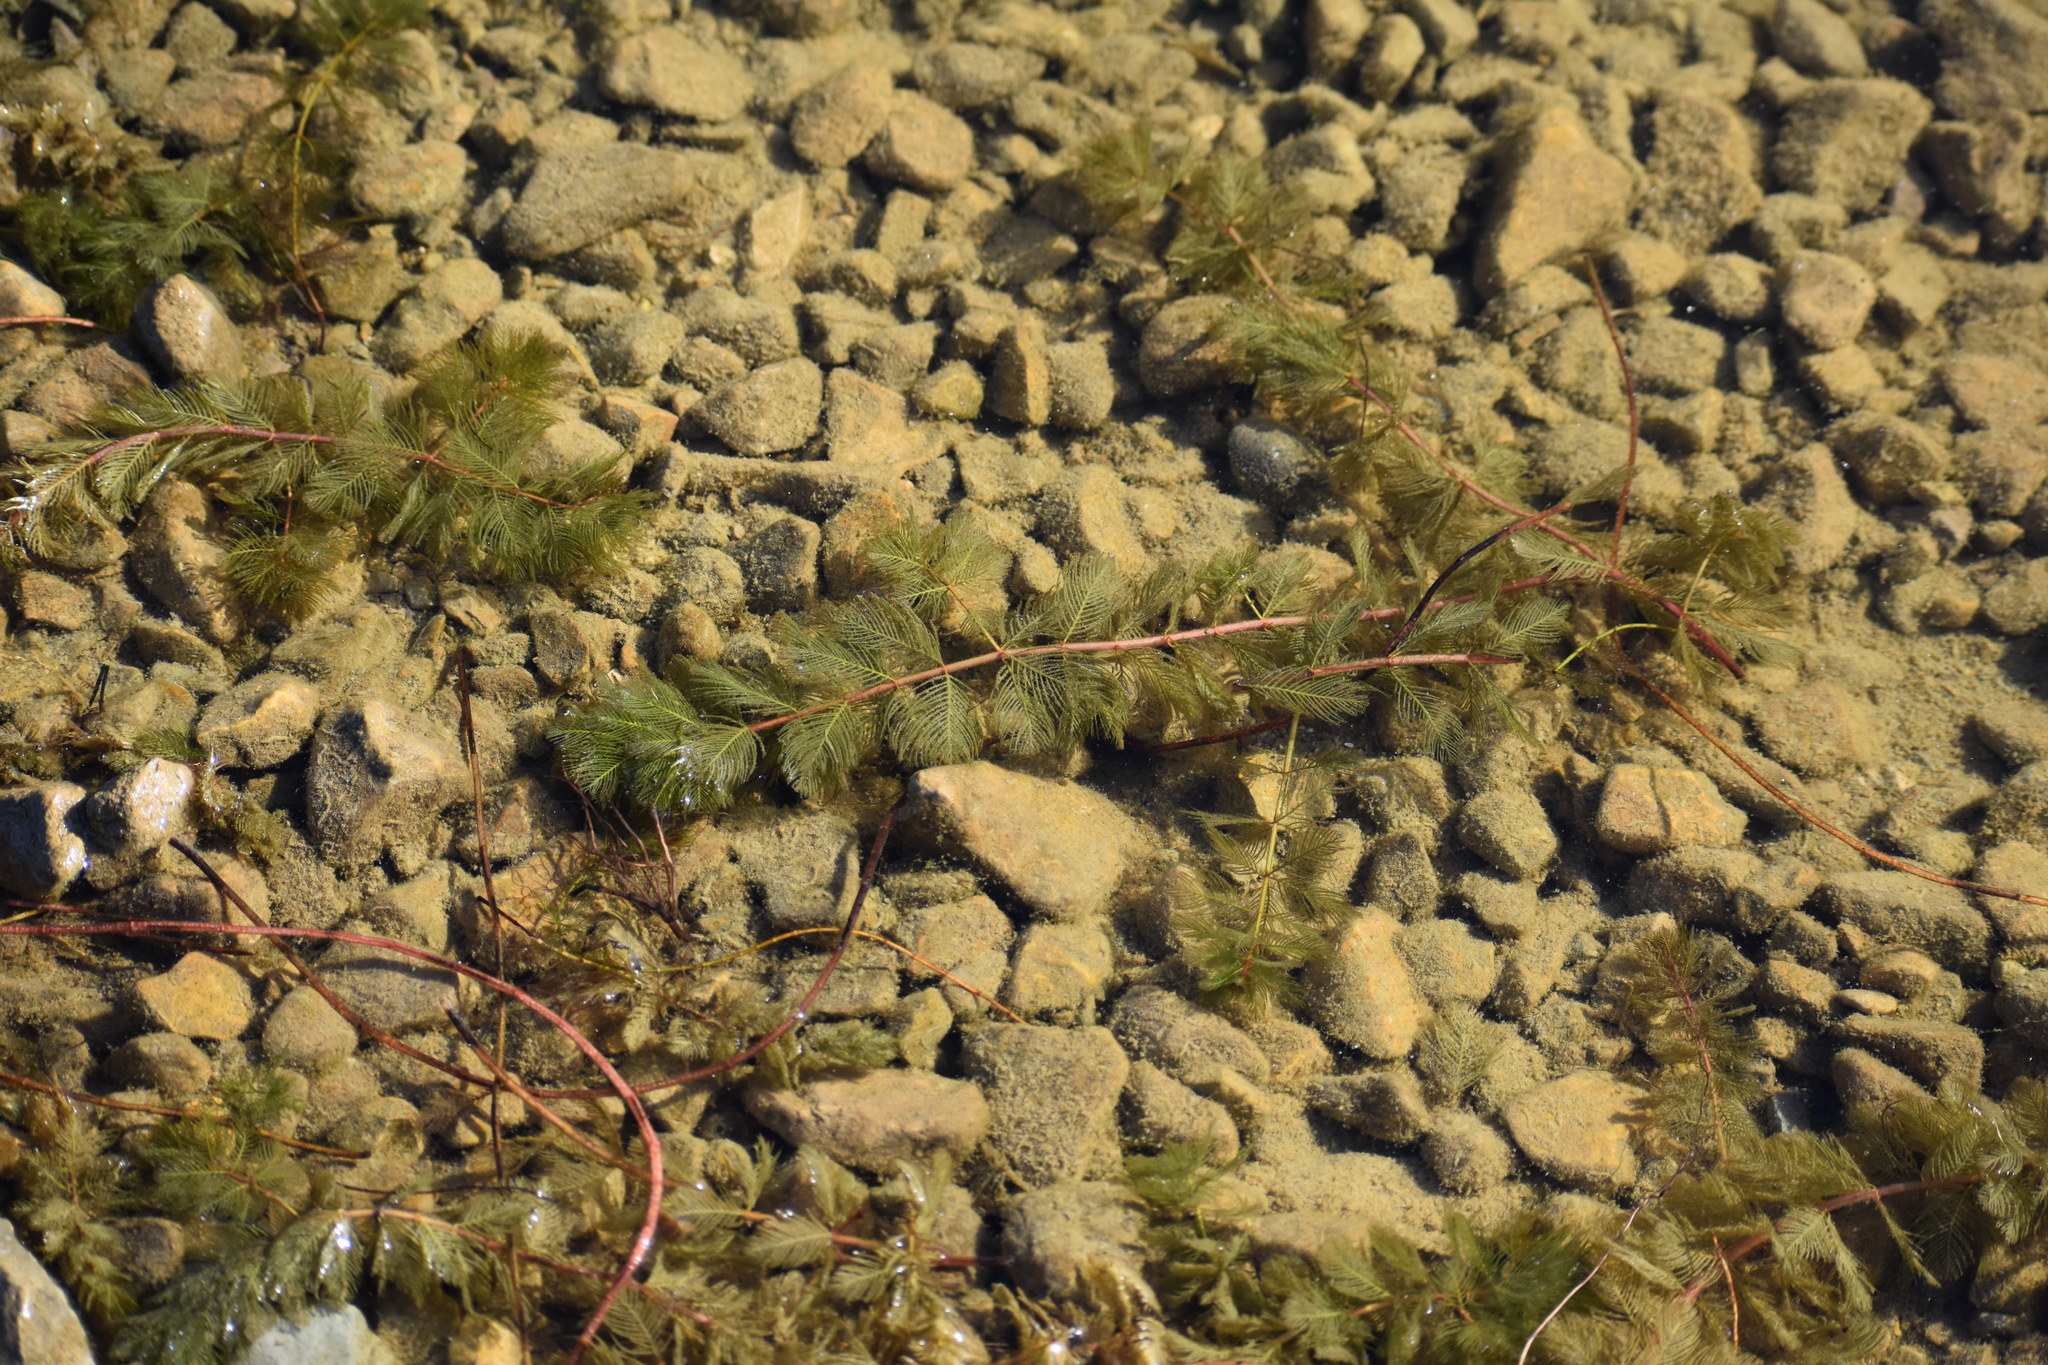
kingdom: Plantae
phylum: Tracheophyta
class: Magnoliopsida
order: Saxifragales
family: Haloragaceae
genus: Myriophyllum
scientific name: Myriophyllum spicatum
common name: Spiked water-milfoil
